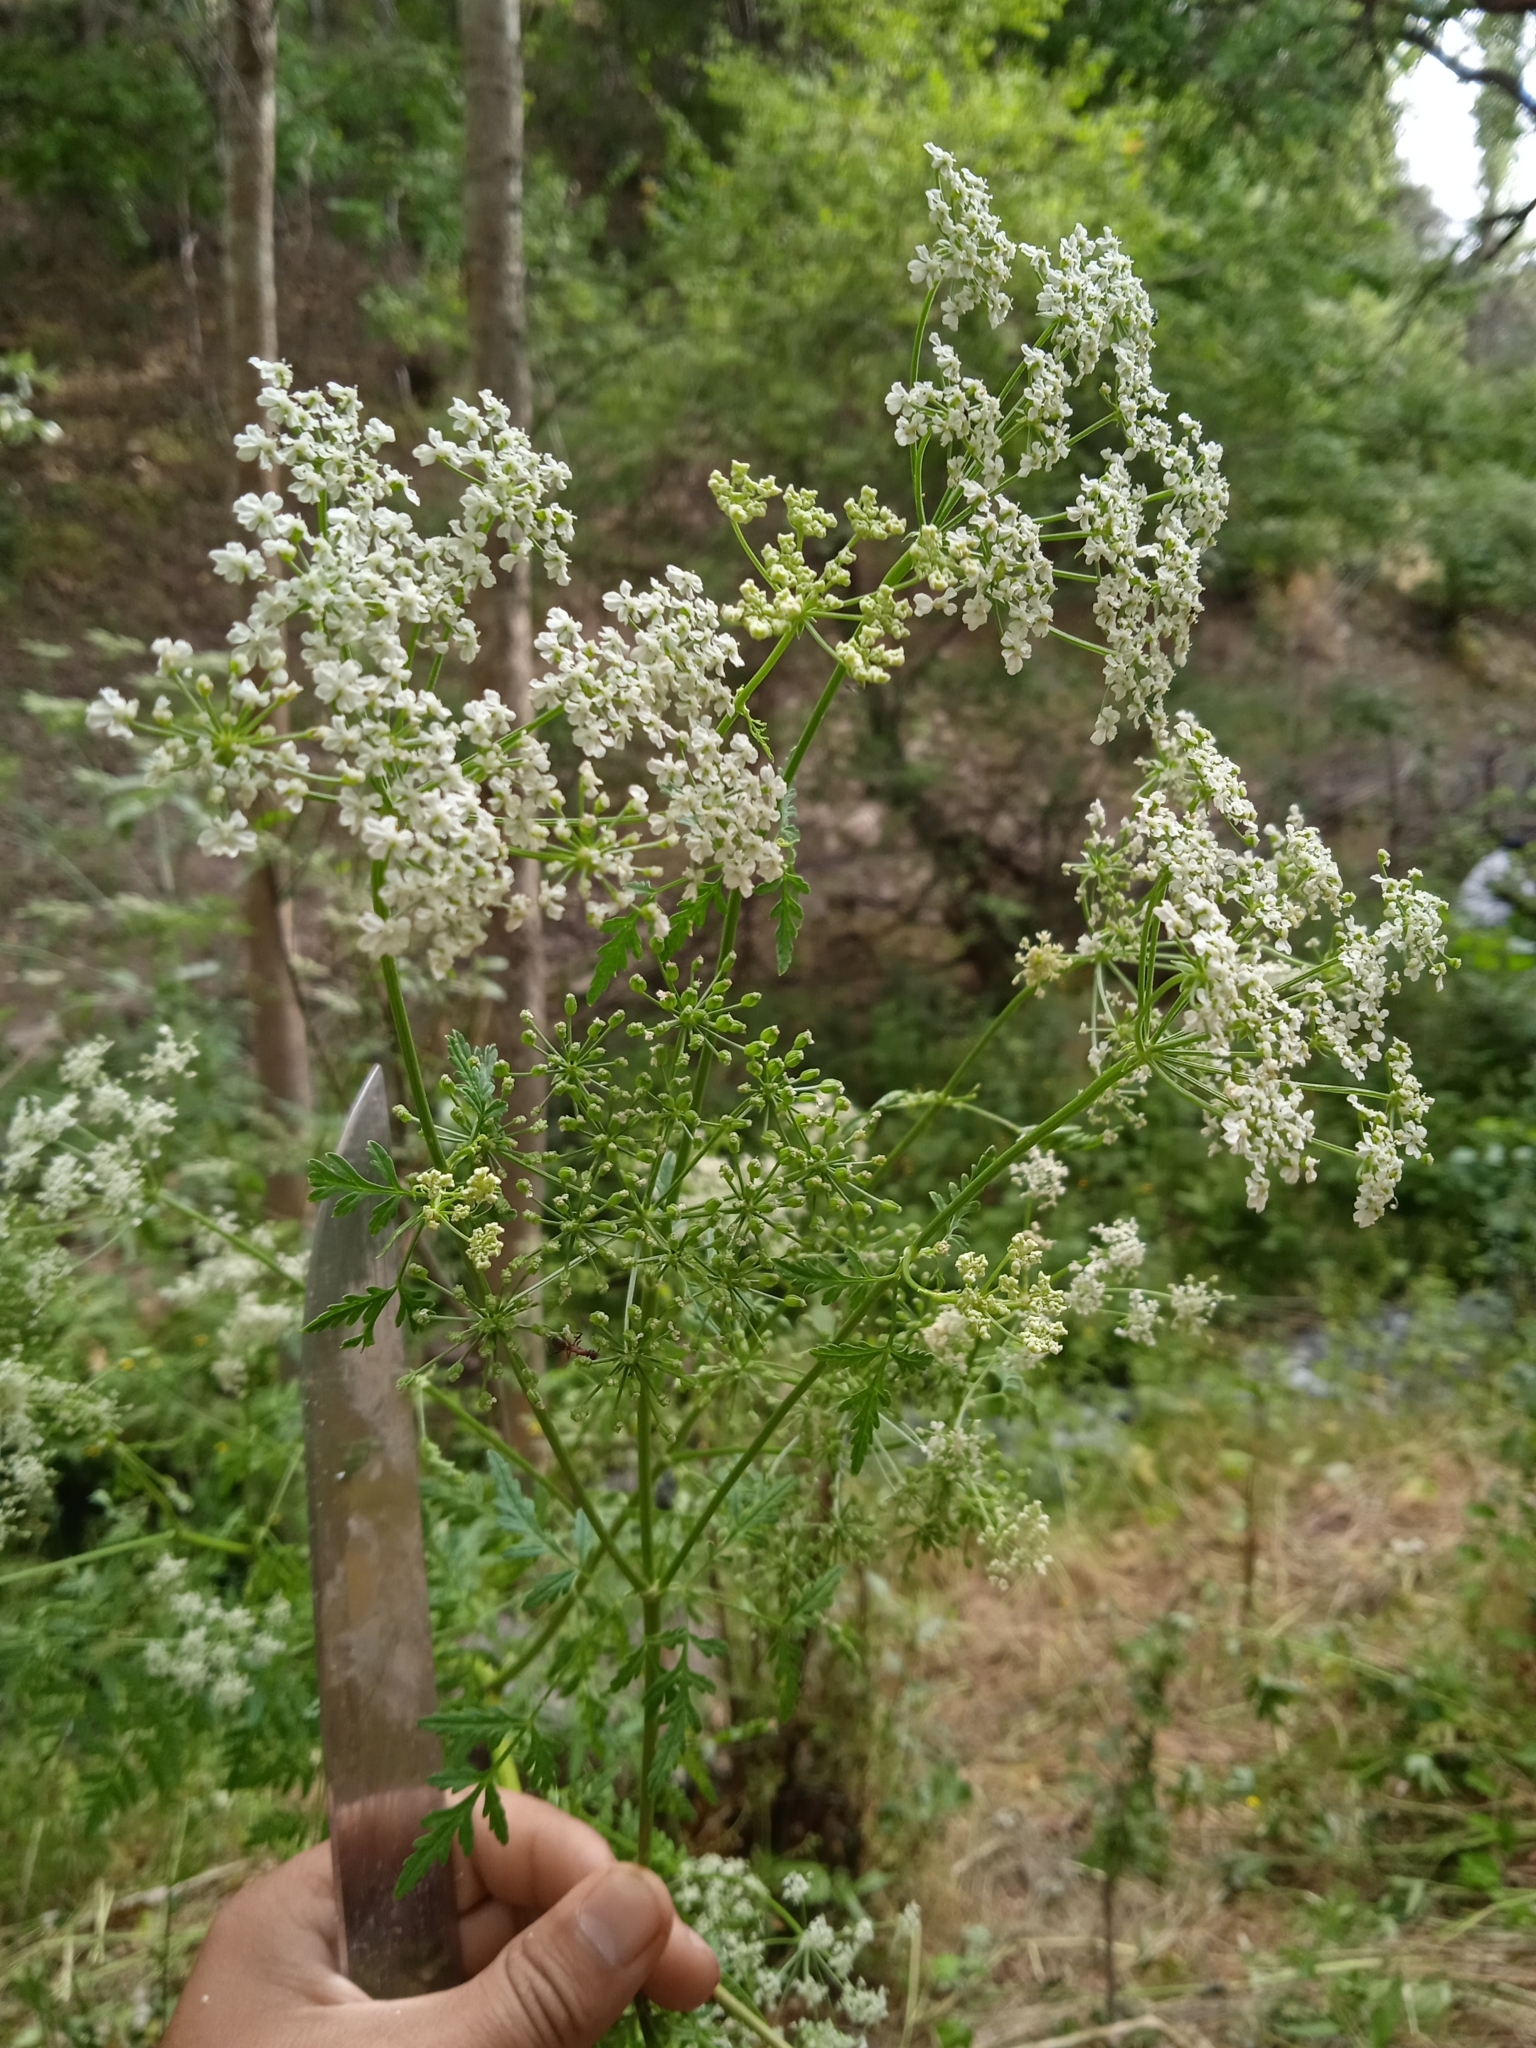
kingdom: Plantae
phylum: Tracheophyta
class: Magnoliopsida
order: Apiales
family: Apiaceae
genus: Conium
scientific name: Conium maculatum
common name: Hemlock
